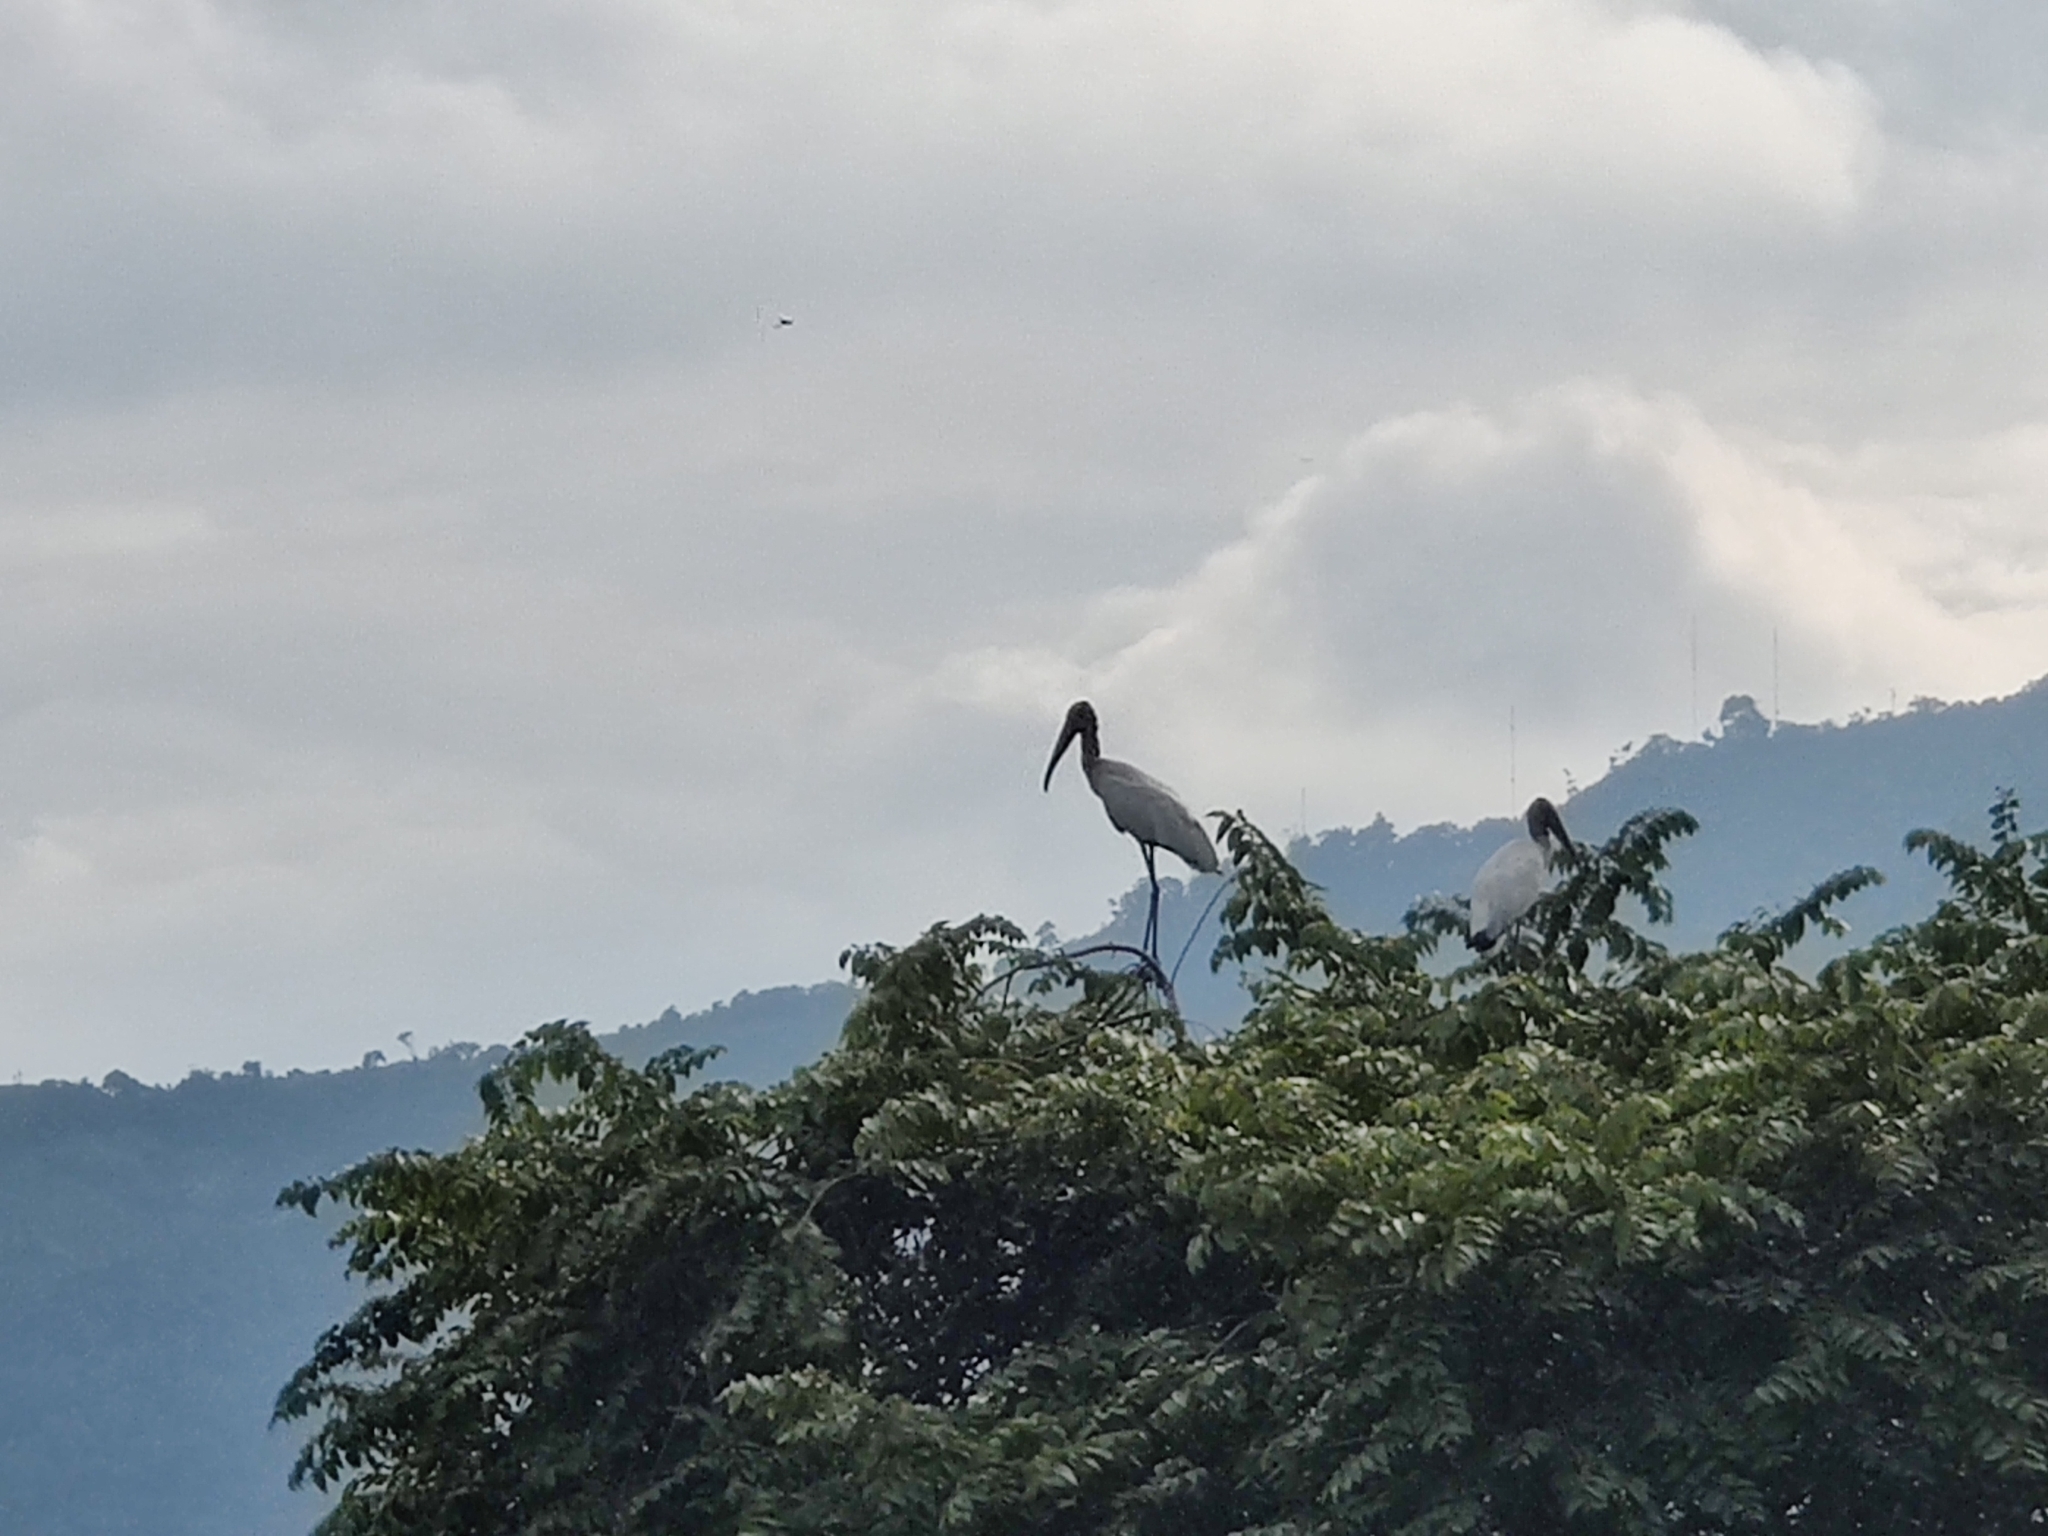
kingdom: Animalia
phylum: Chordata
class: Aves
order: Ciconiiformes
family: Ciconiidae
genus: Mycteria
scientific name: Mycteria americana
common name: Wood stork
